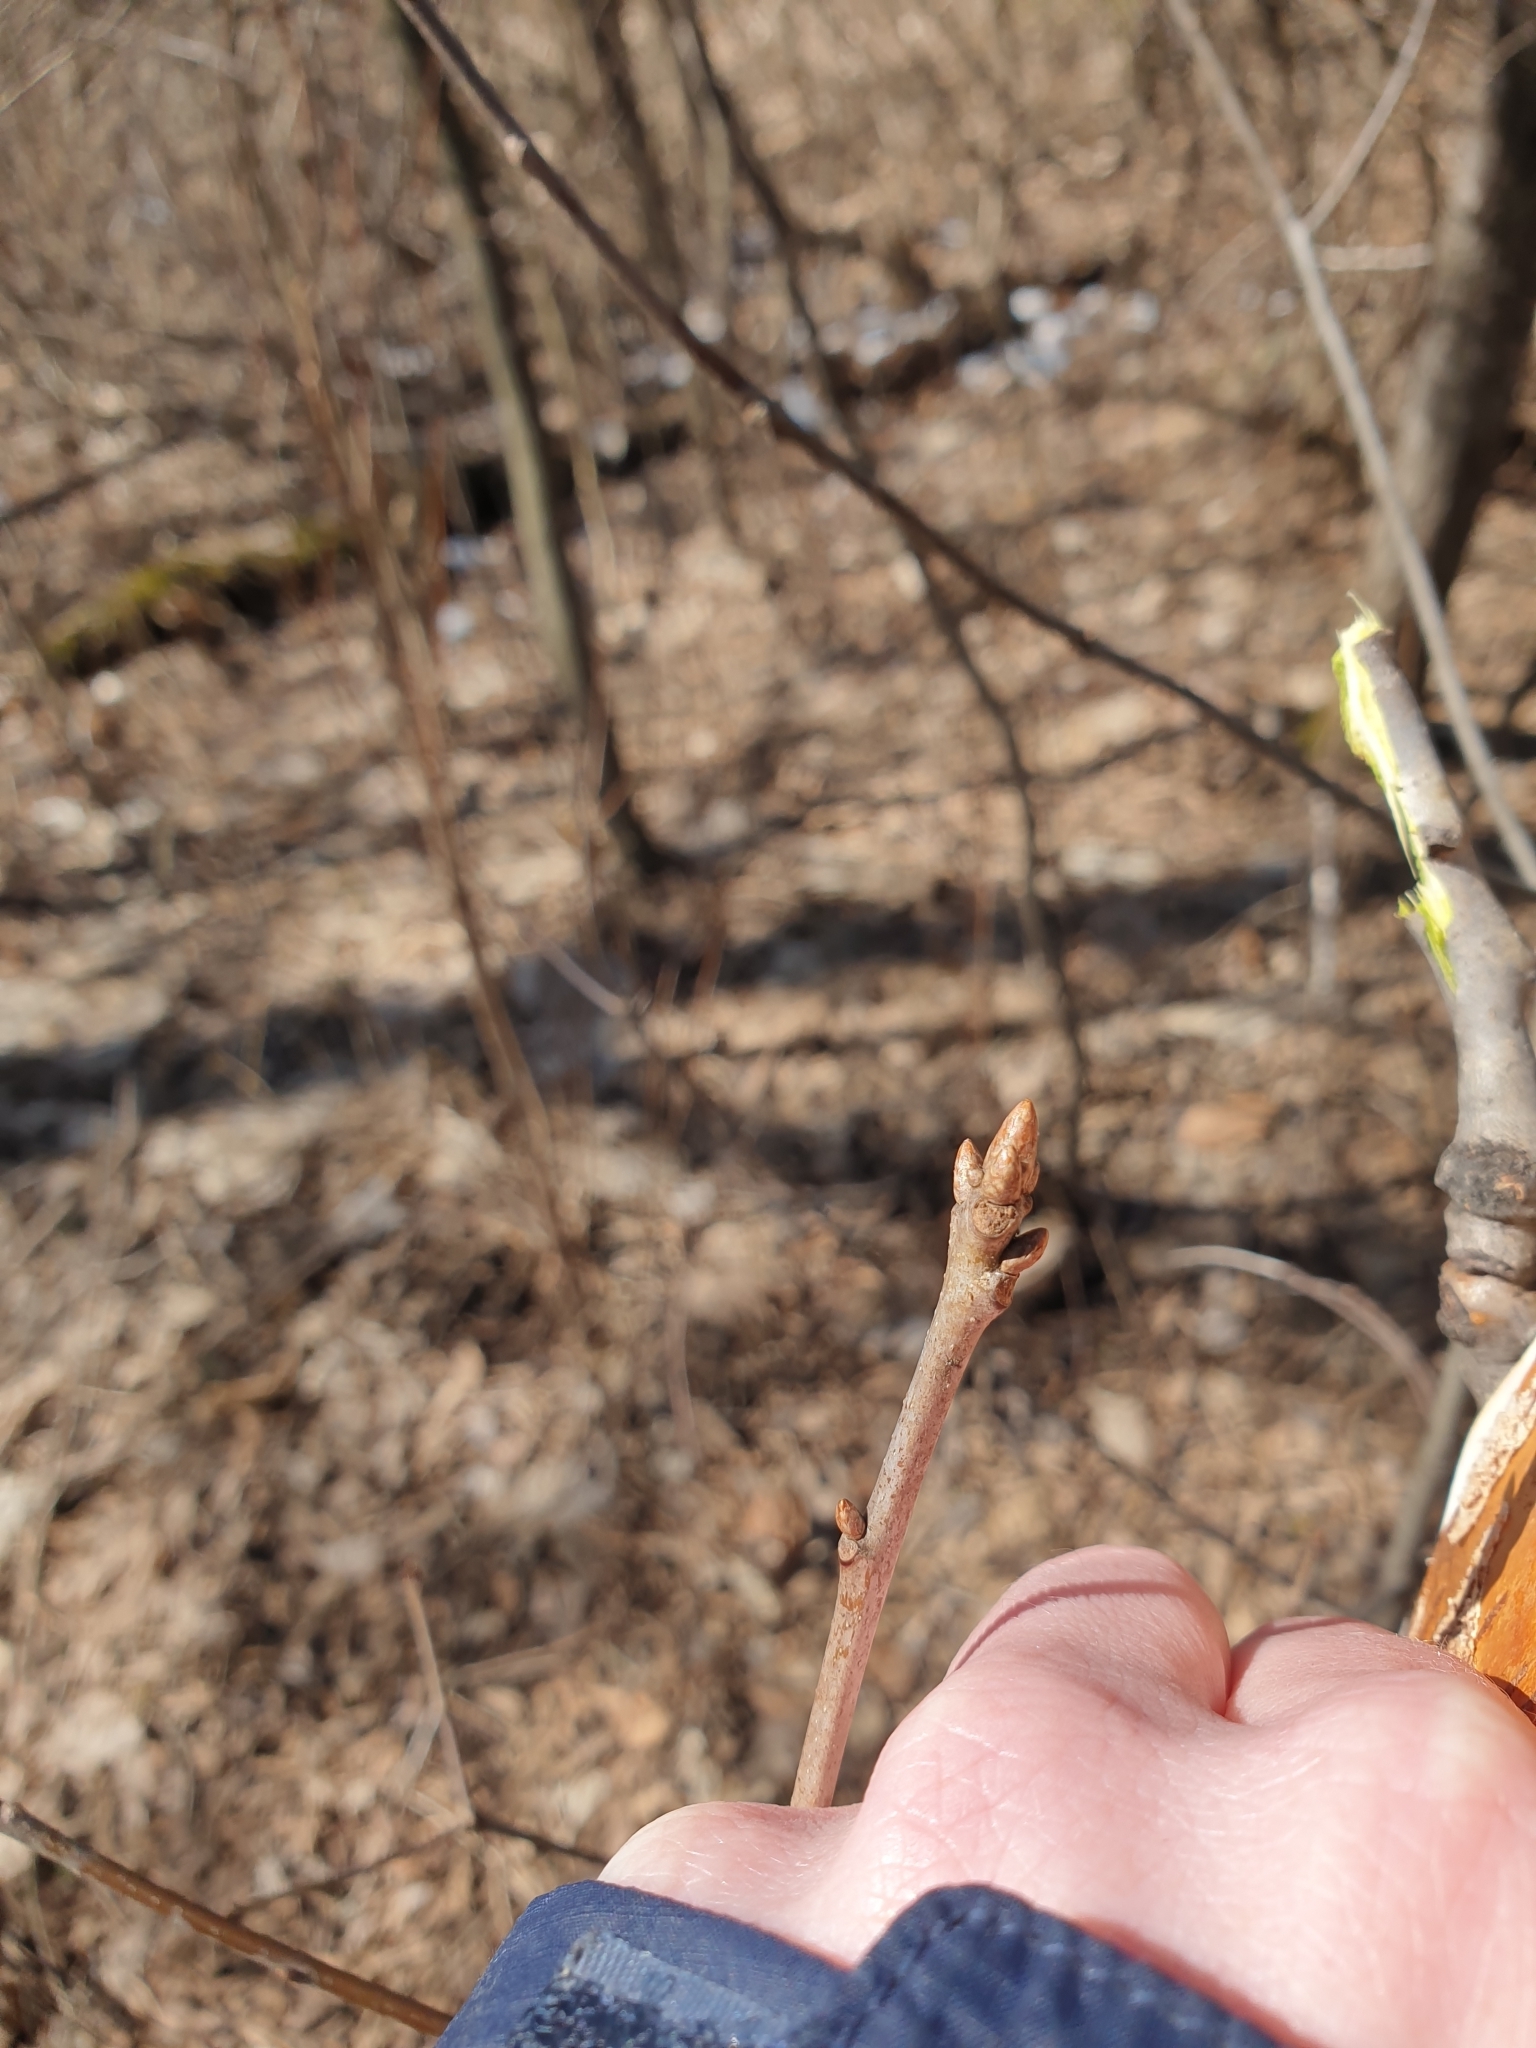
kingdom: Plantae
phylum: Tracheophyta
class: Magnoliopsida
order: Fagales
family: Fagaceae
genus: Quercus
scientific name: Quercus rubra
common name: Red oak
